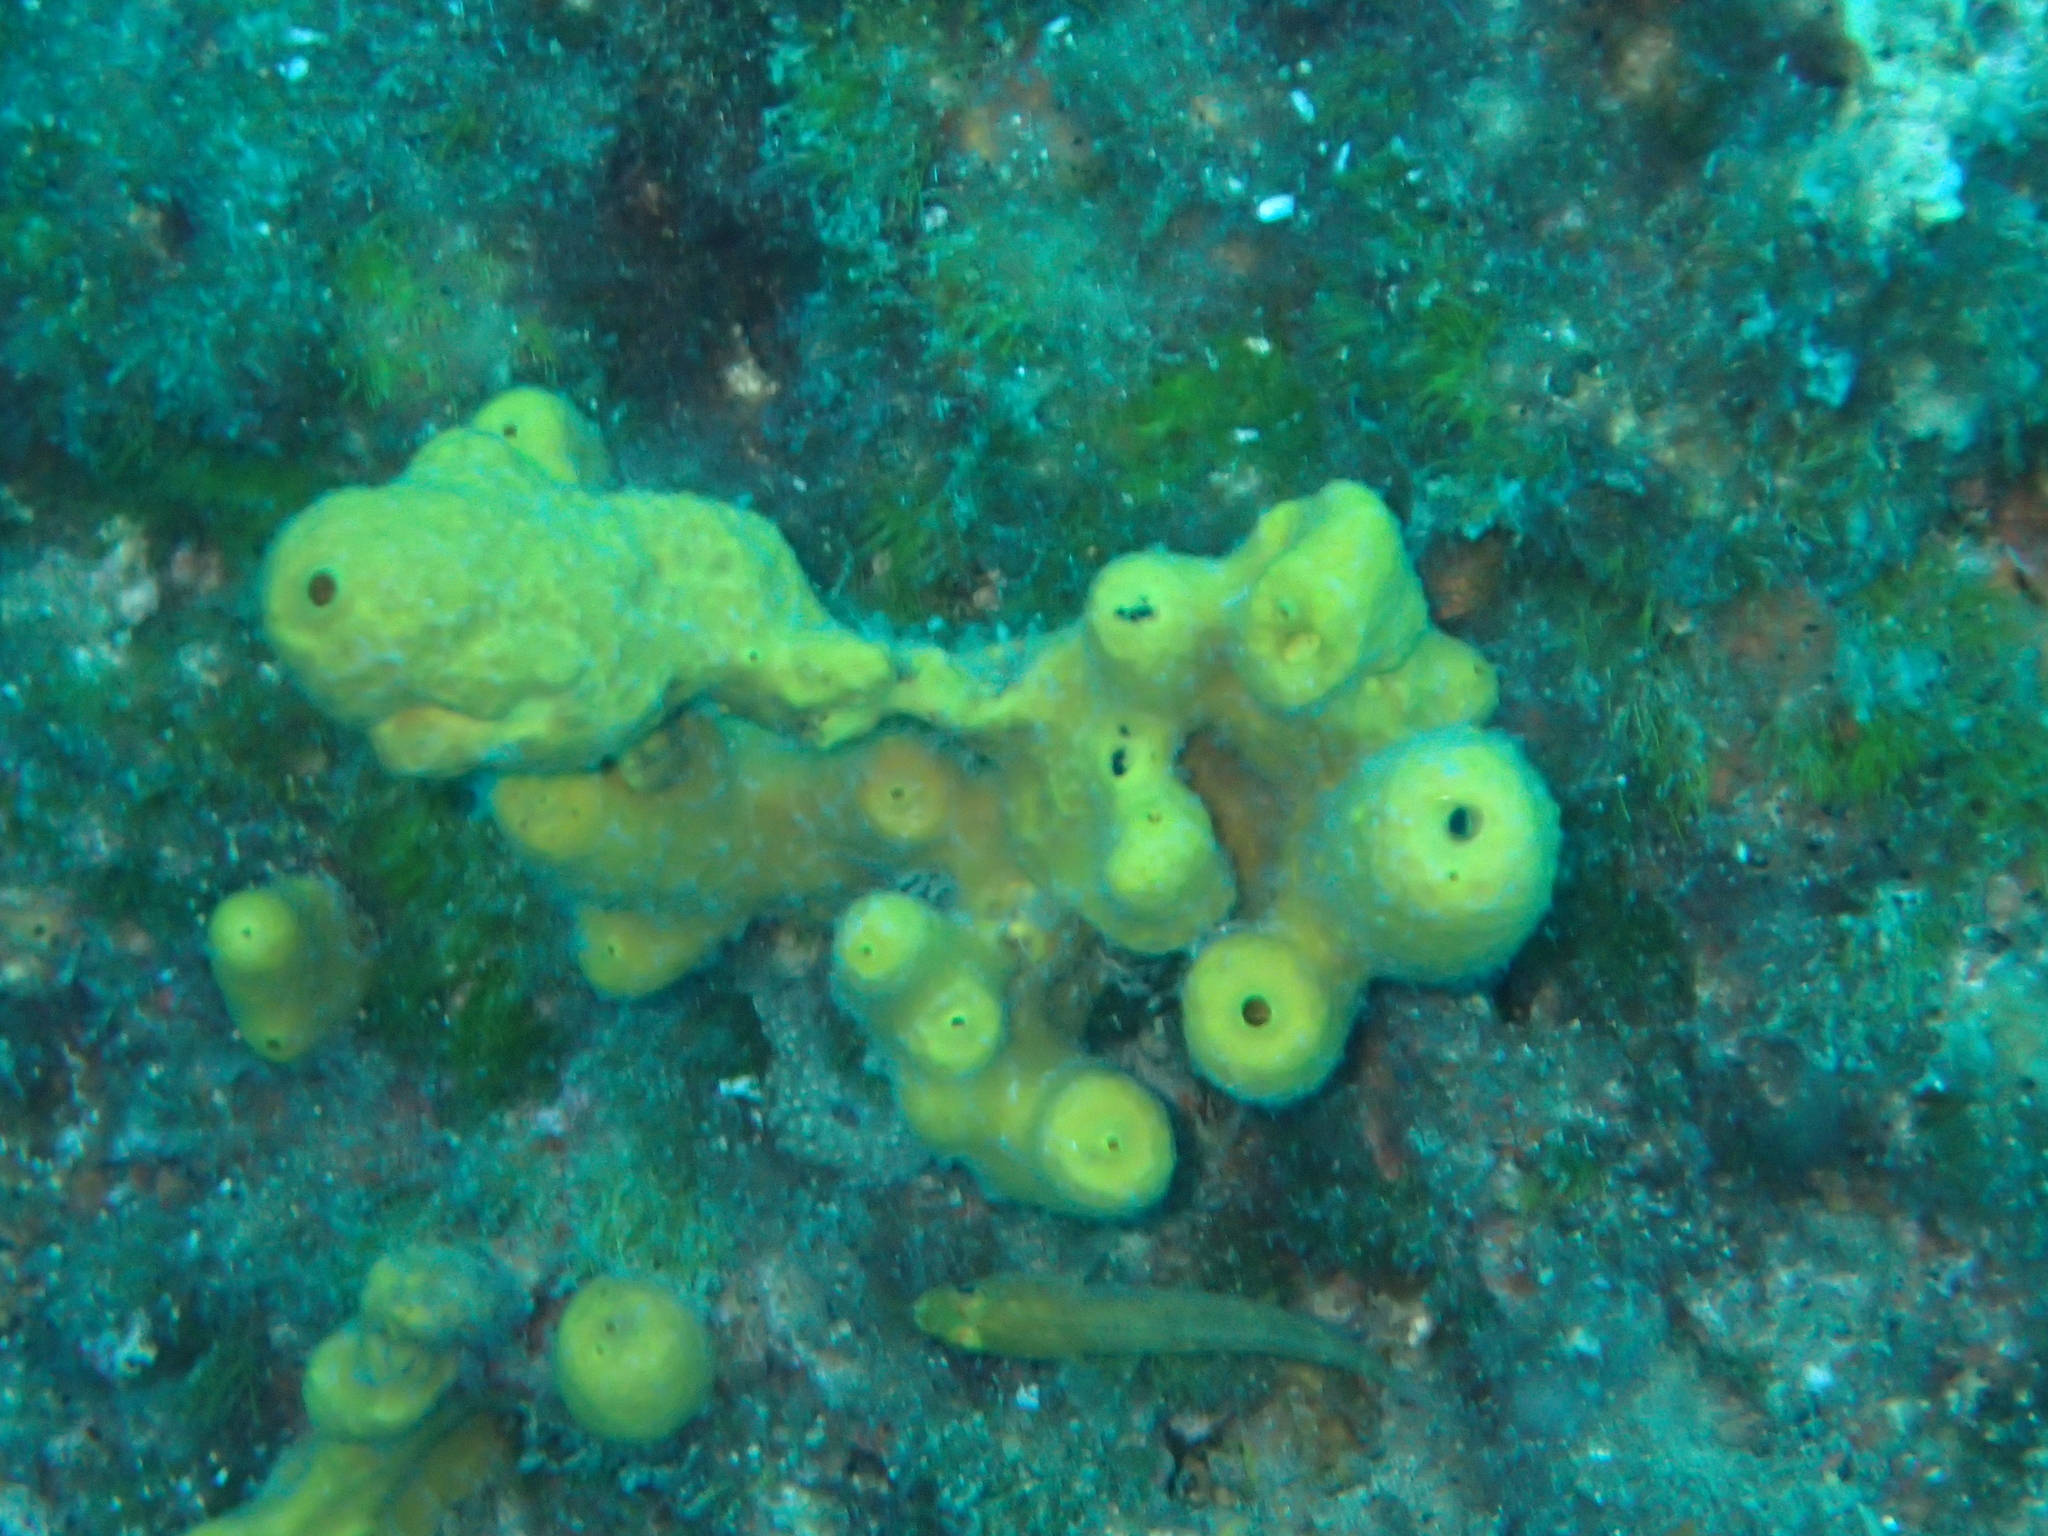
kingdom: Animalia
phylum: Porifera
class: Demospongiae
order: Verongiida
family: Aplysinidae
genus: Aplysina
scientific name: Aplysina aerophoba
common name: Aureate sponge
